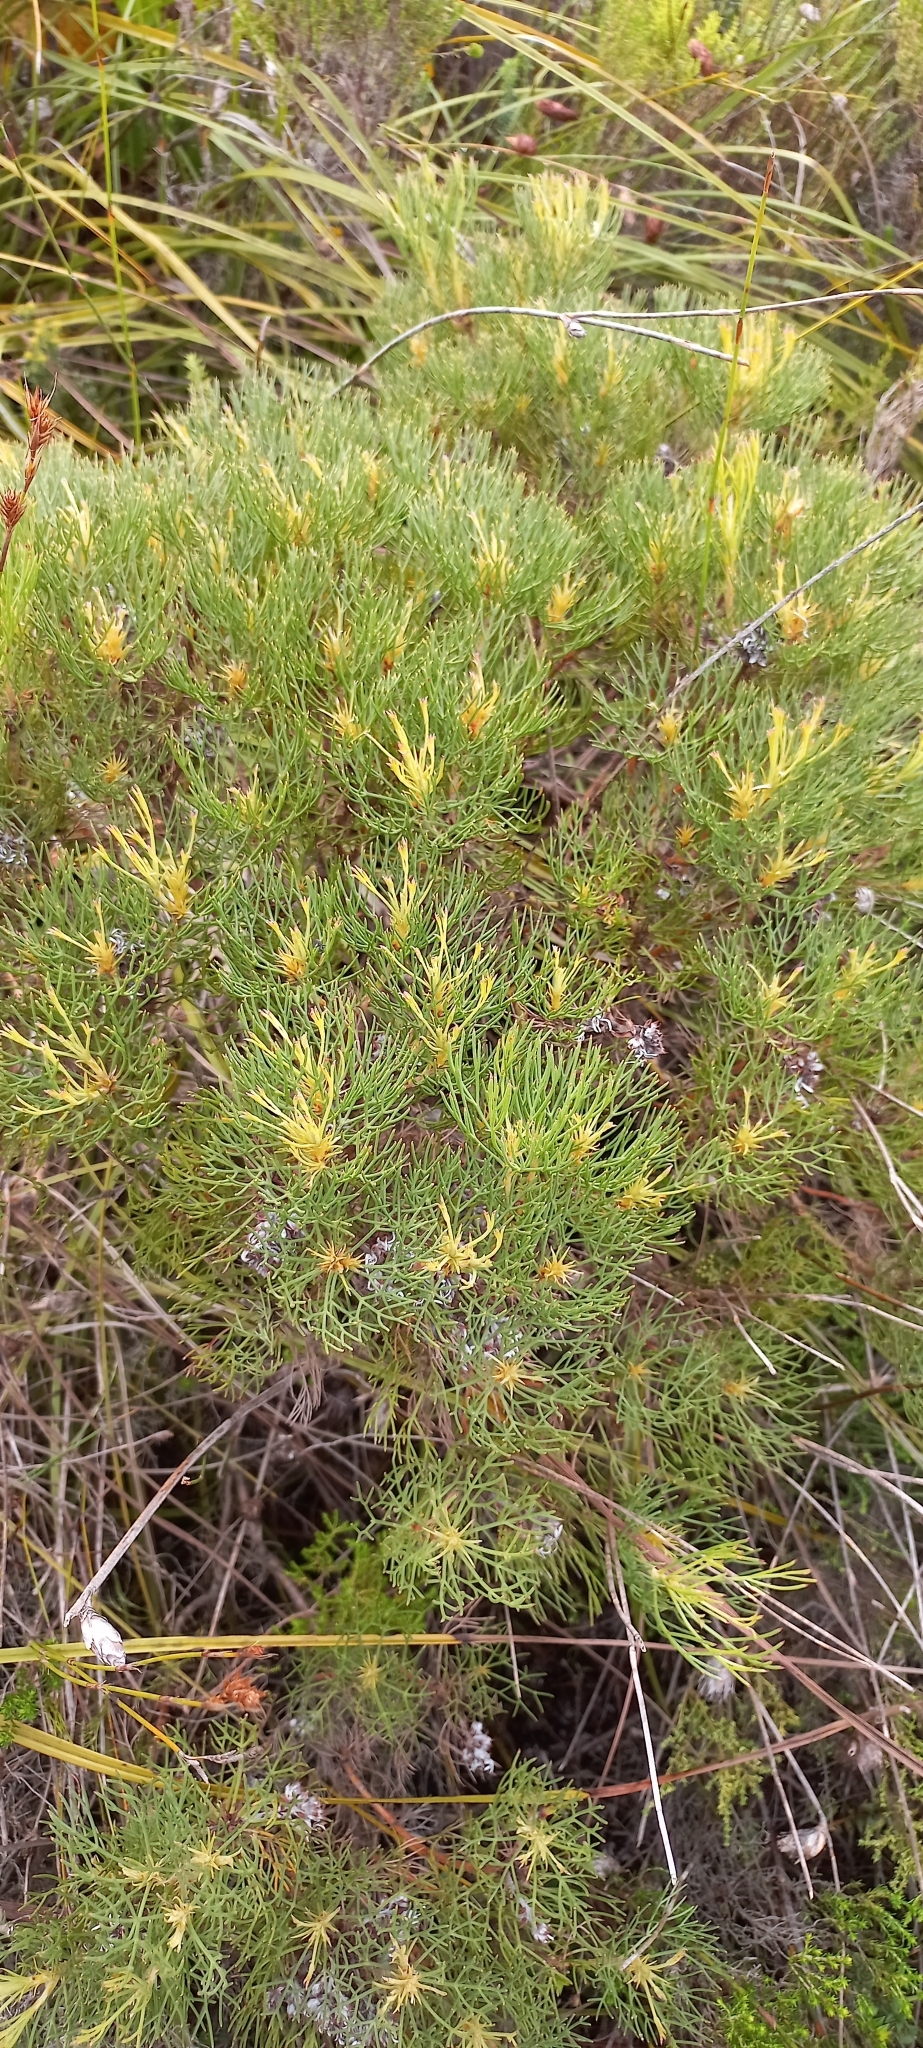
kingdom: Plantae
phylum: Tracheophyta
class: Magnoliopsida
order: Proteales
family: Proteaceae
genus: Serruria
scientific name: Serruria ascendens
